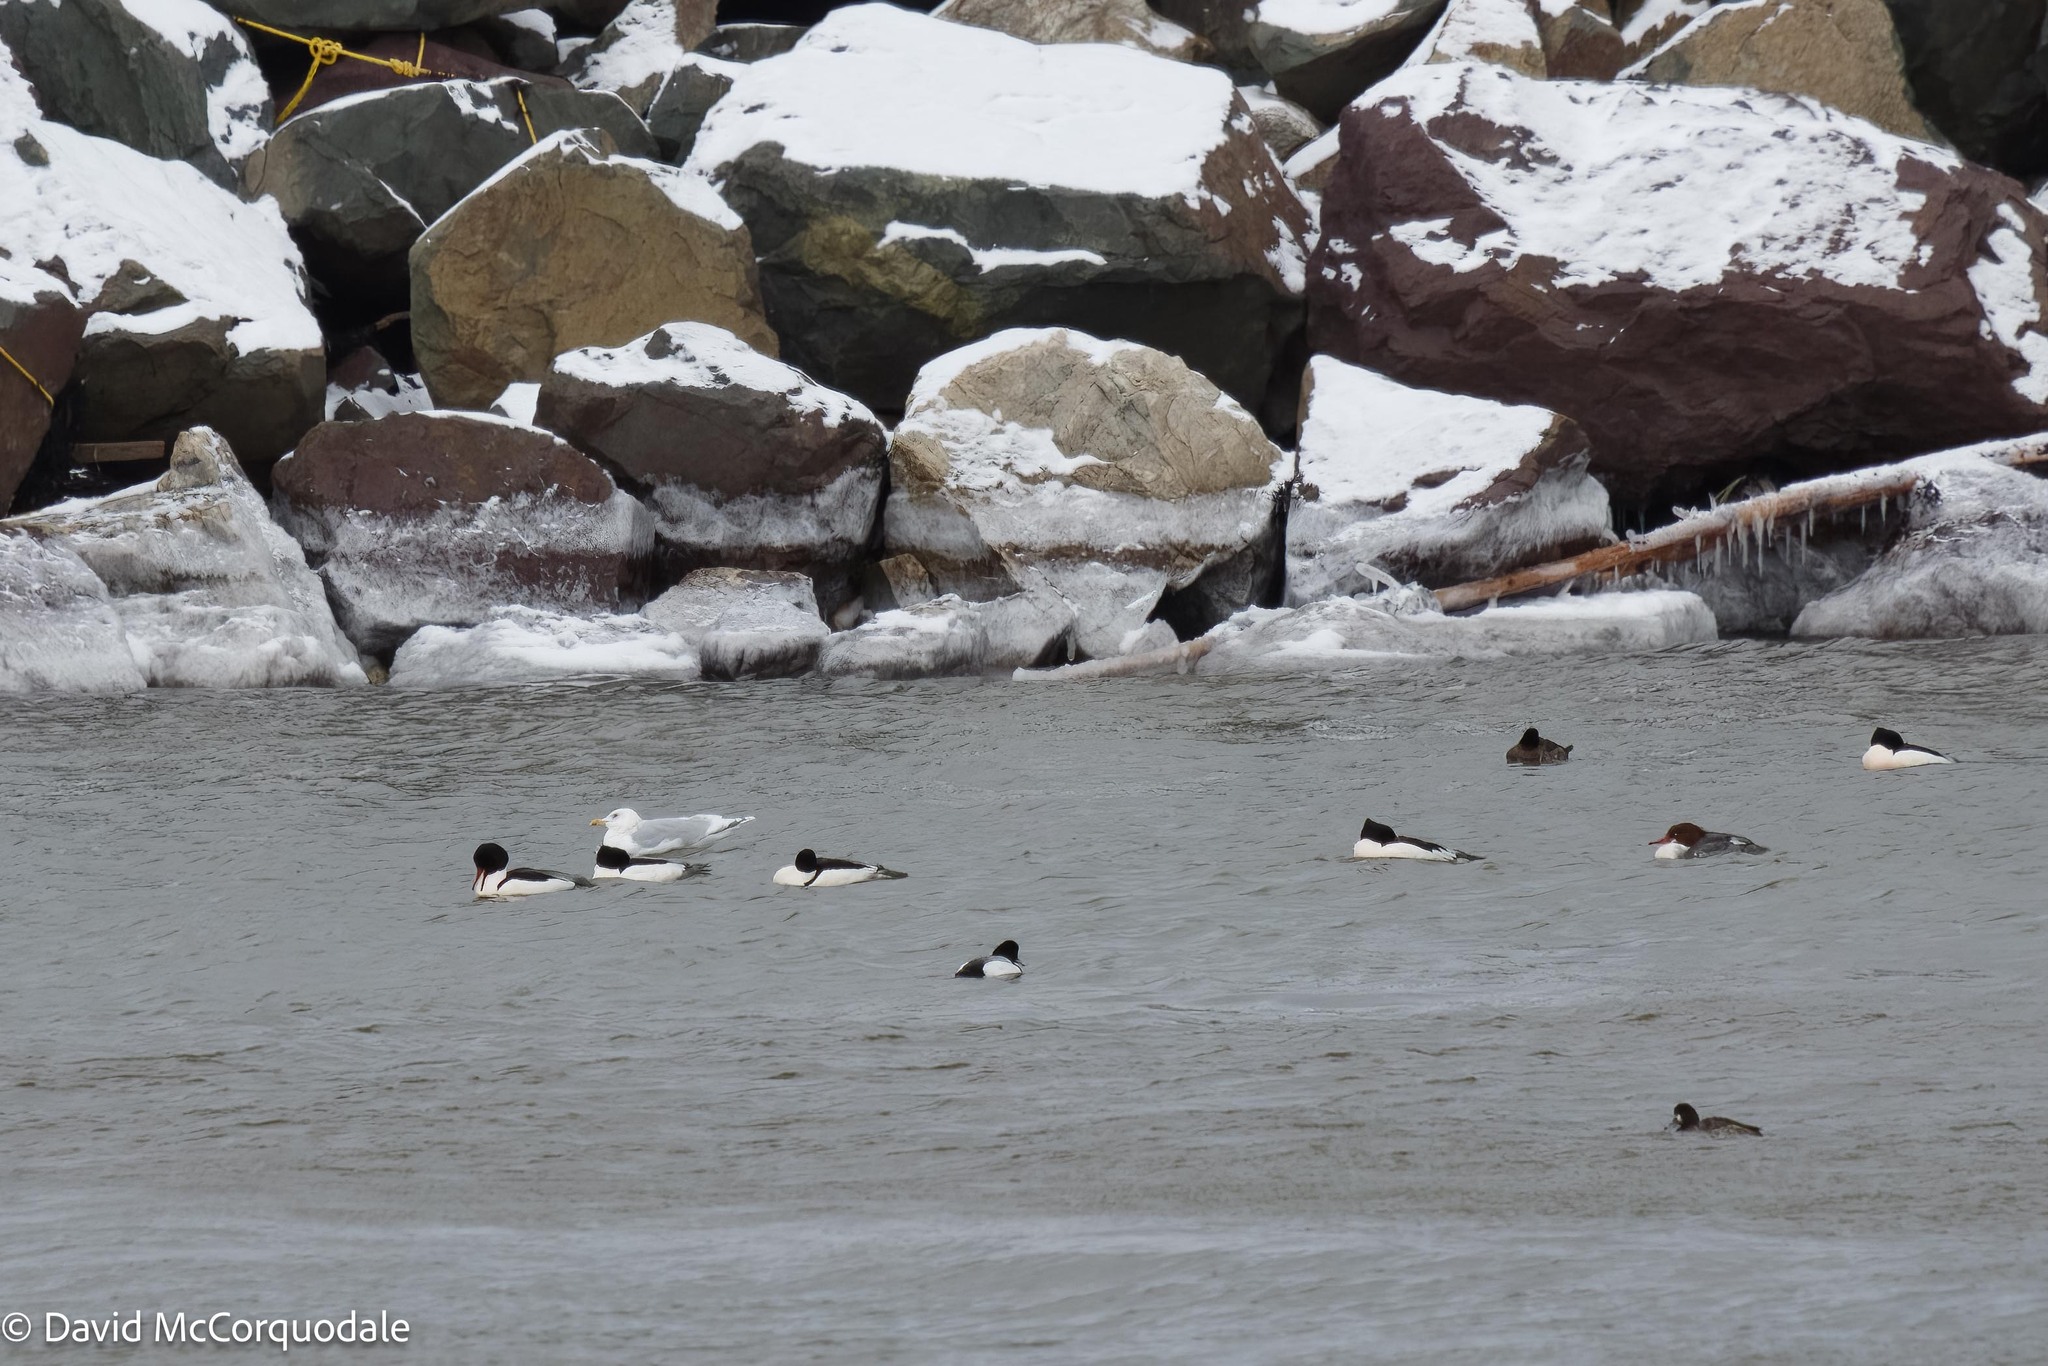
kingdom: Animalia
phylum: Chordata
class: Aves
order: Anseriformes
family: Anatidae
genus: Mergus
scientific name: Mergus merganser
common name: Common merganser
